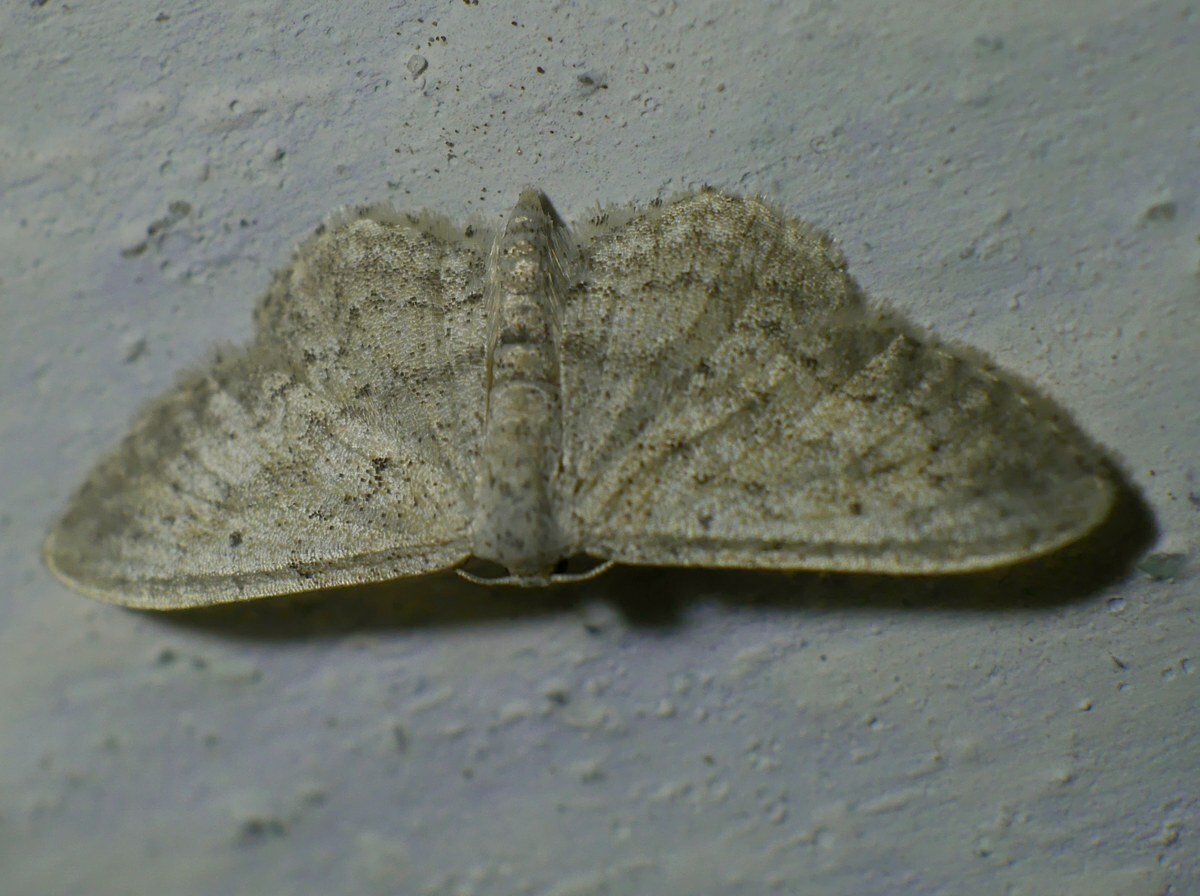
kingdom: Animalia
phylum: Arthropoda
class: Insecta
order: Lepidoptera
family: Geometridae
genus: Idaea
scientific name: Idaea seriata
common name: Small dusty wave
